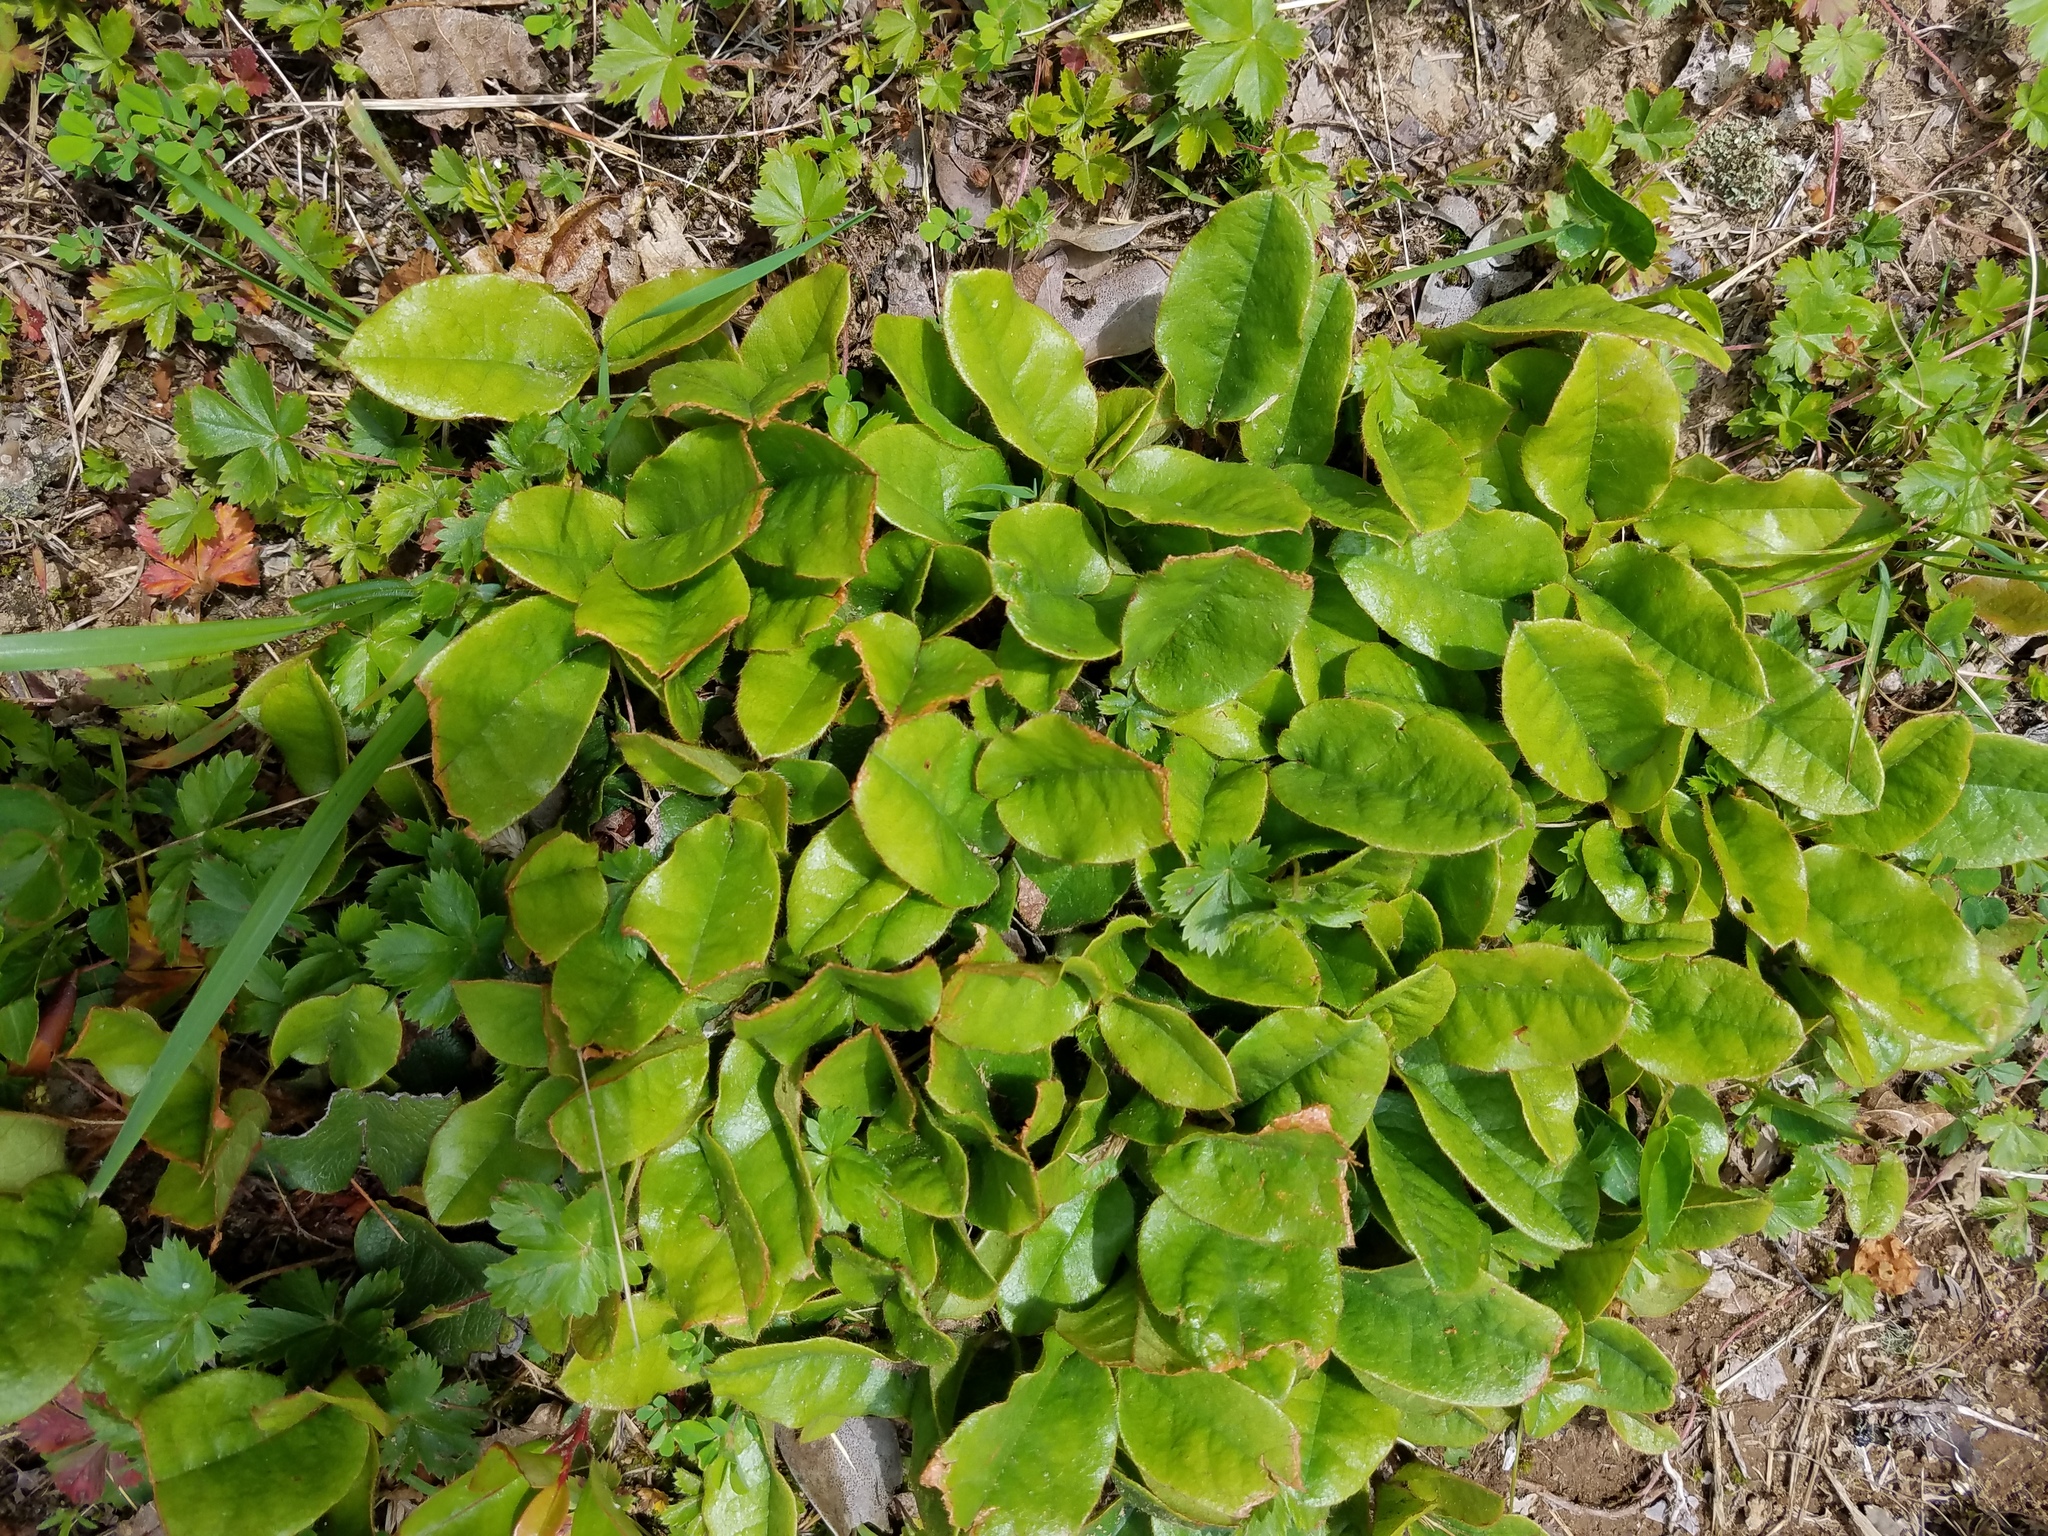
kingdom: Plantae
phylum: Tracheophyta
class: Magnoliopsida
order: Ericales
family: Ericaceae
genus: Epigaea
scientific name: Epigaea repens
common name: Gravelroot
